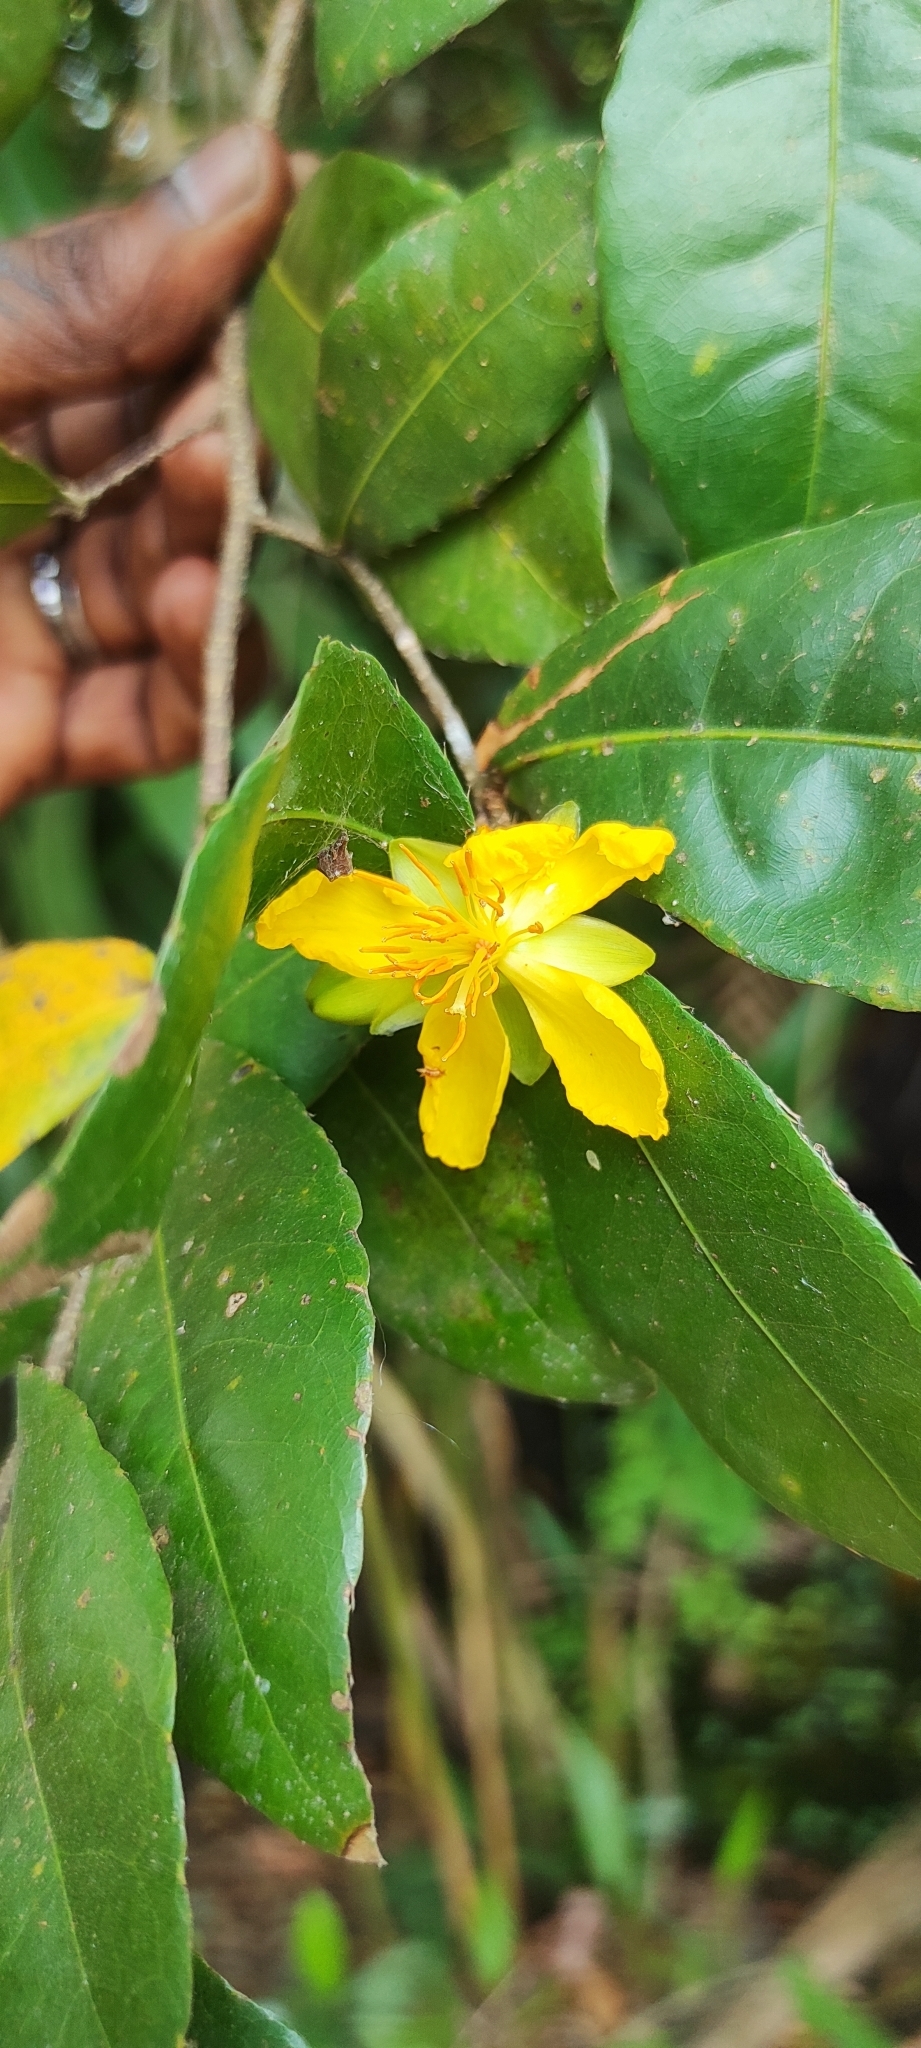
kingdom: Plantae
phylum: Tracheophyta
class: Magnoliopsida
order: Malpighiales
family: Ochnaceae
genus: Ochna
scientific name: Ochna thomasiana
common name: Thomas' bird's-eye bush
